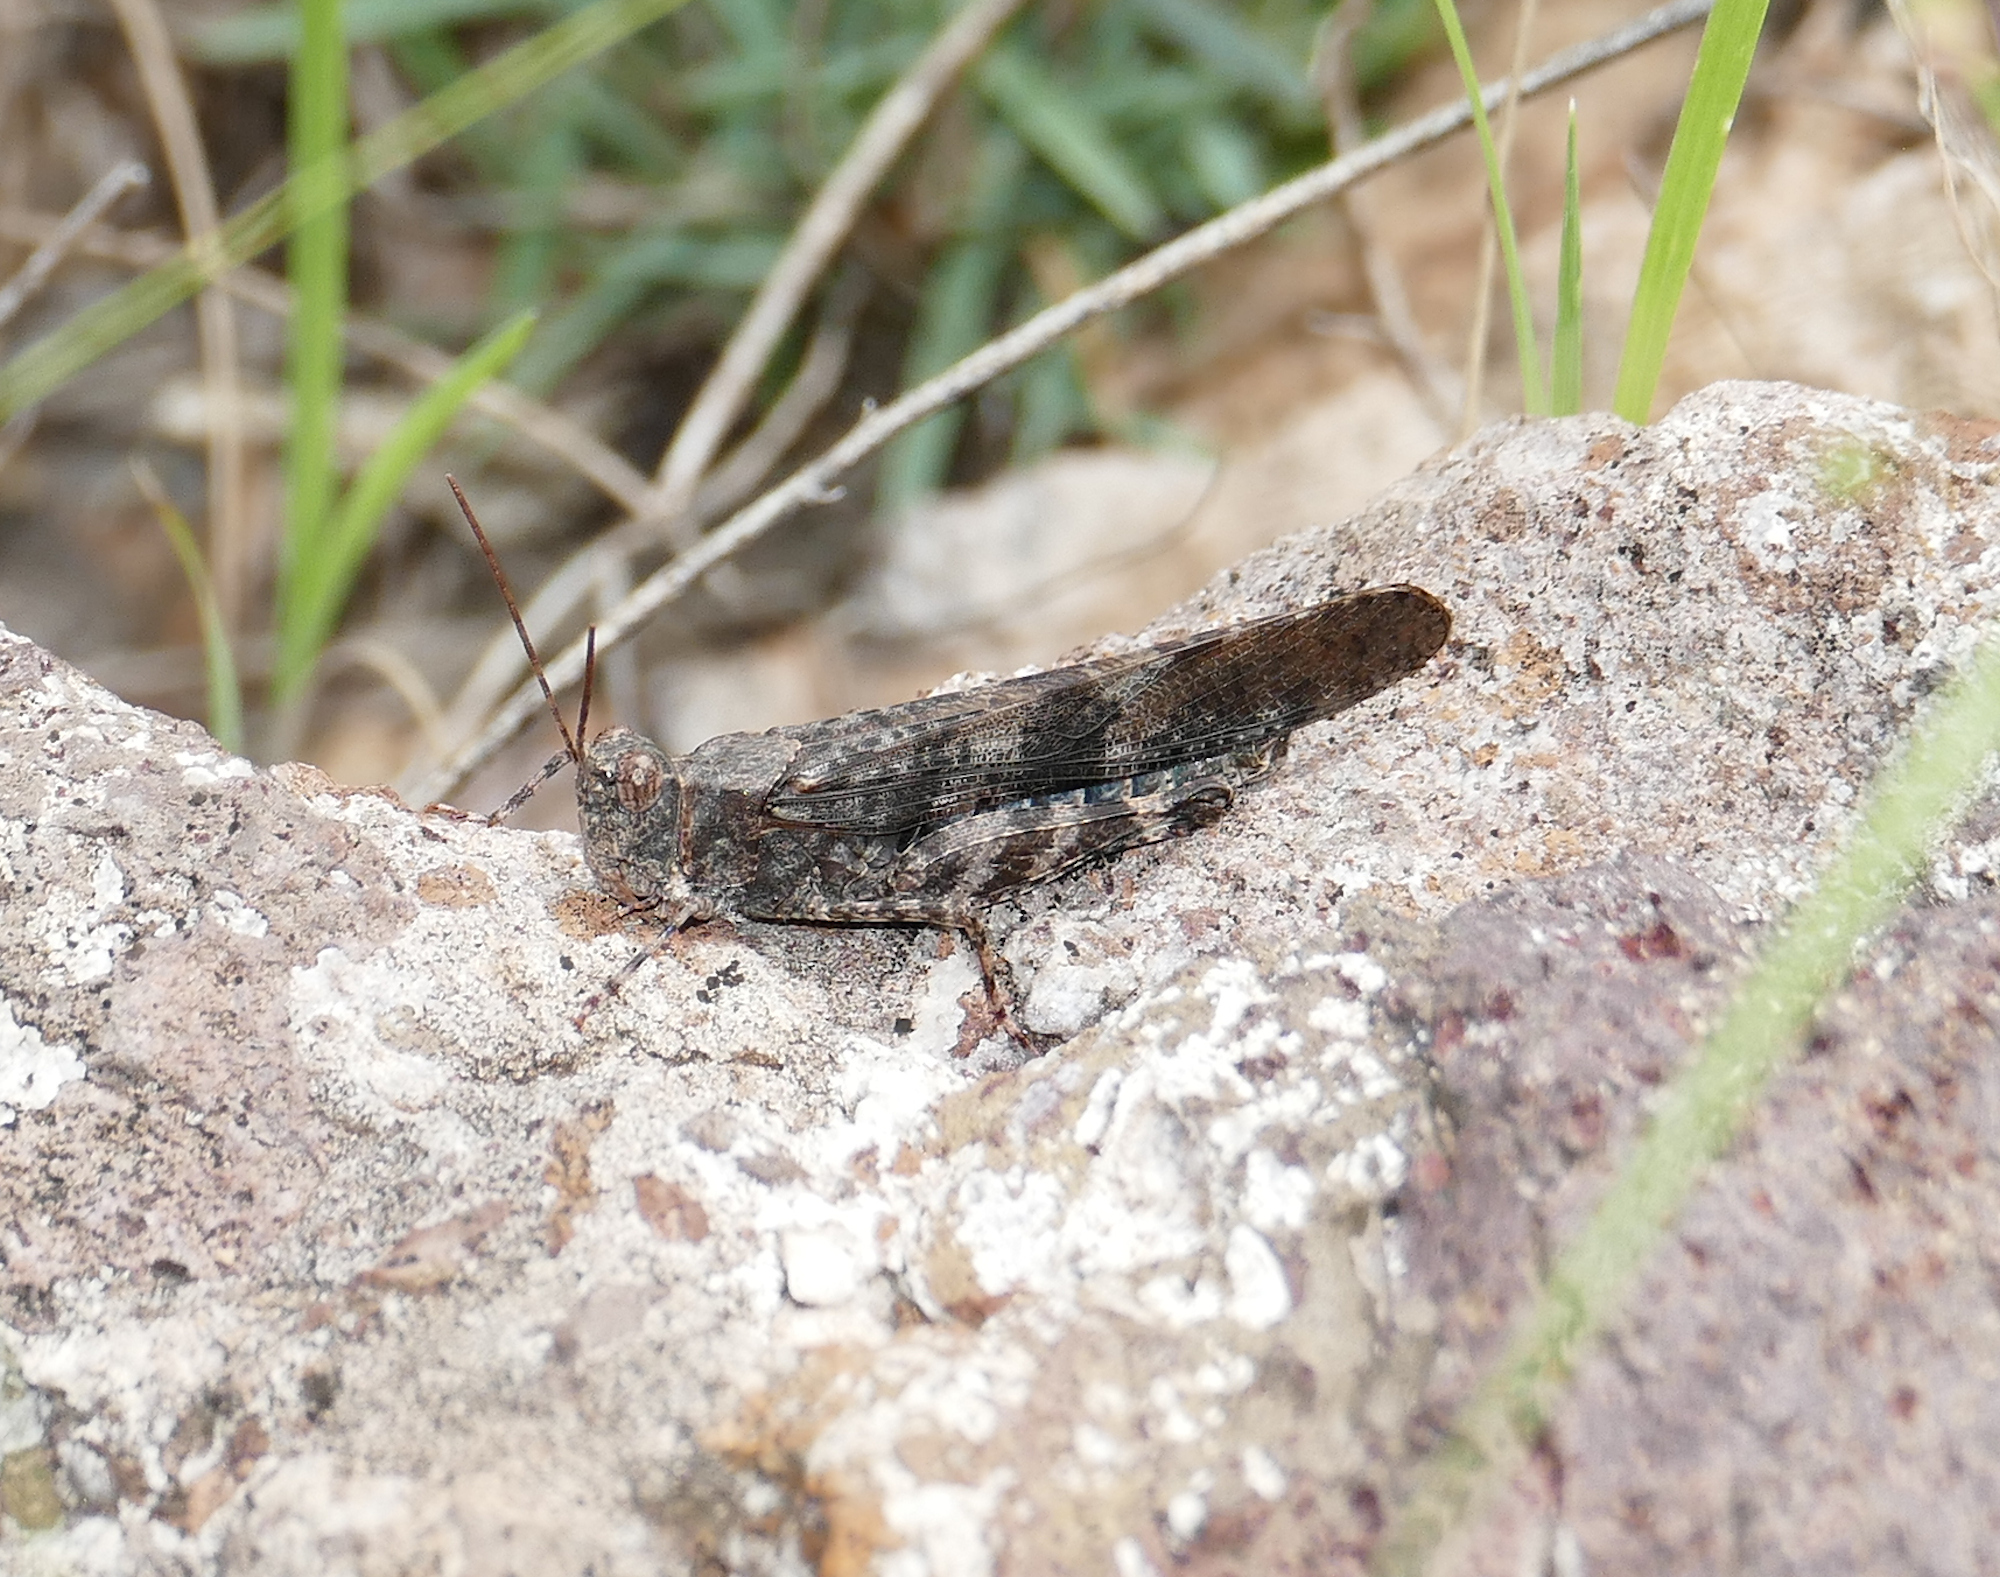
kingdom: Animalia
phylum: Arthropoda
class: Insecta
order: Orthoptera
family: Acrididae
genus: Trimerotropis
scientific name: Trimerotropis cyaneipennis
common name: Blue-winged grasshopper
